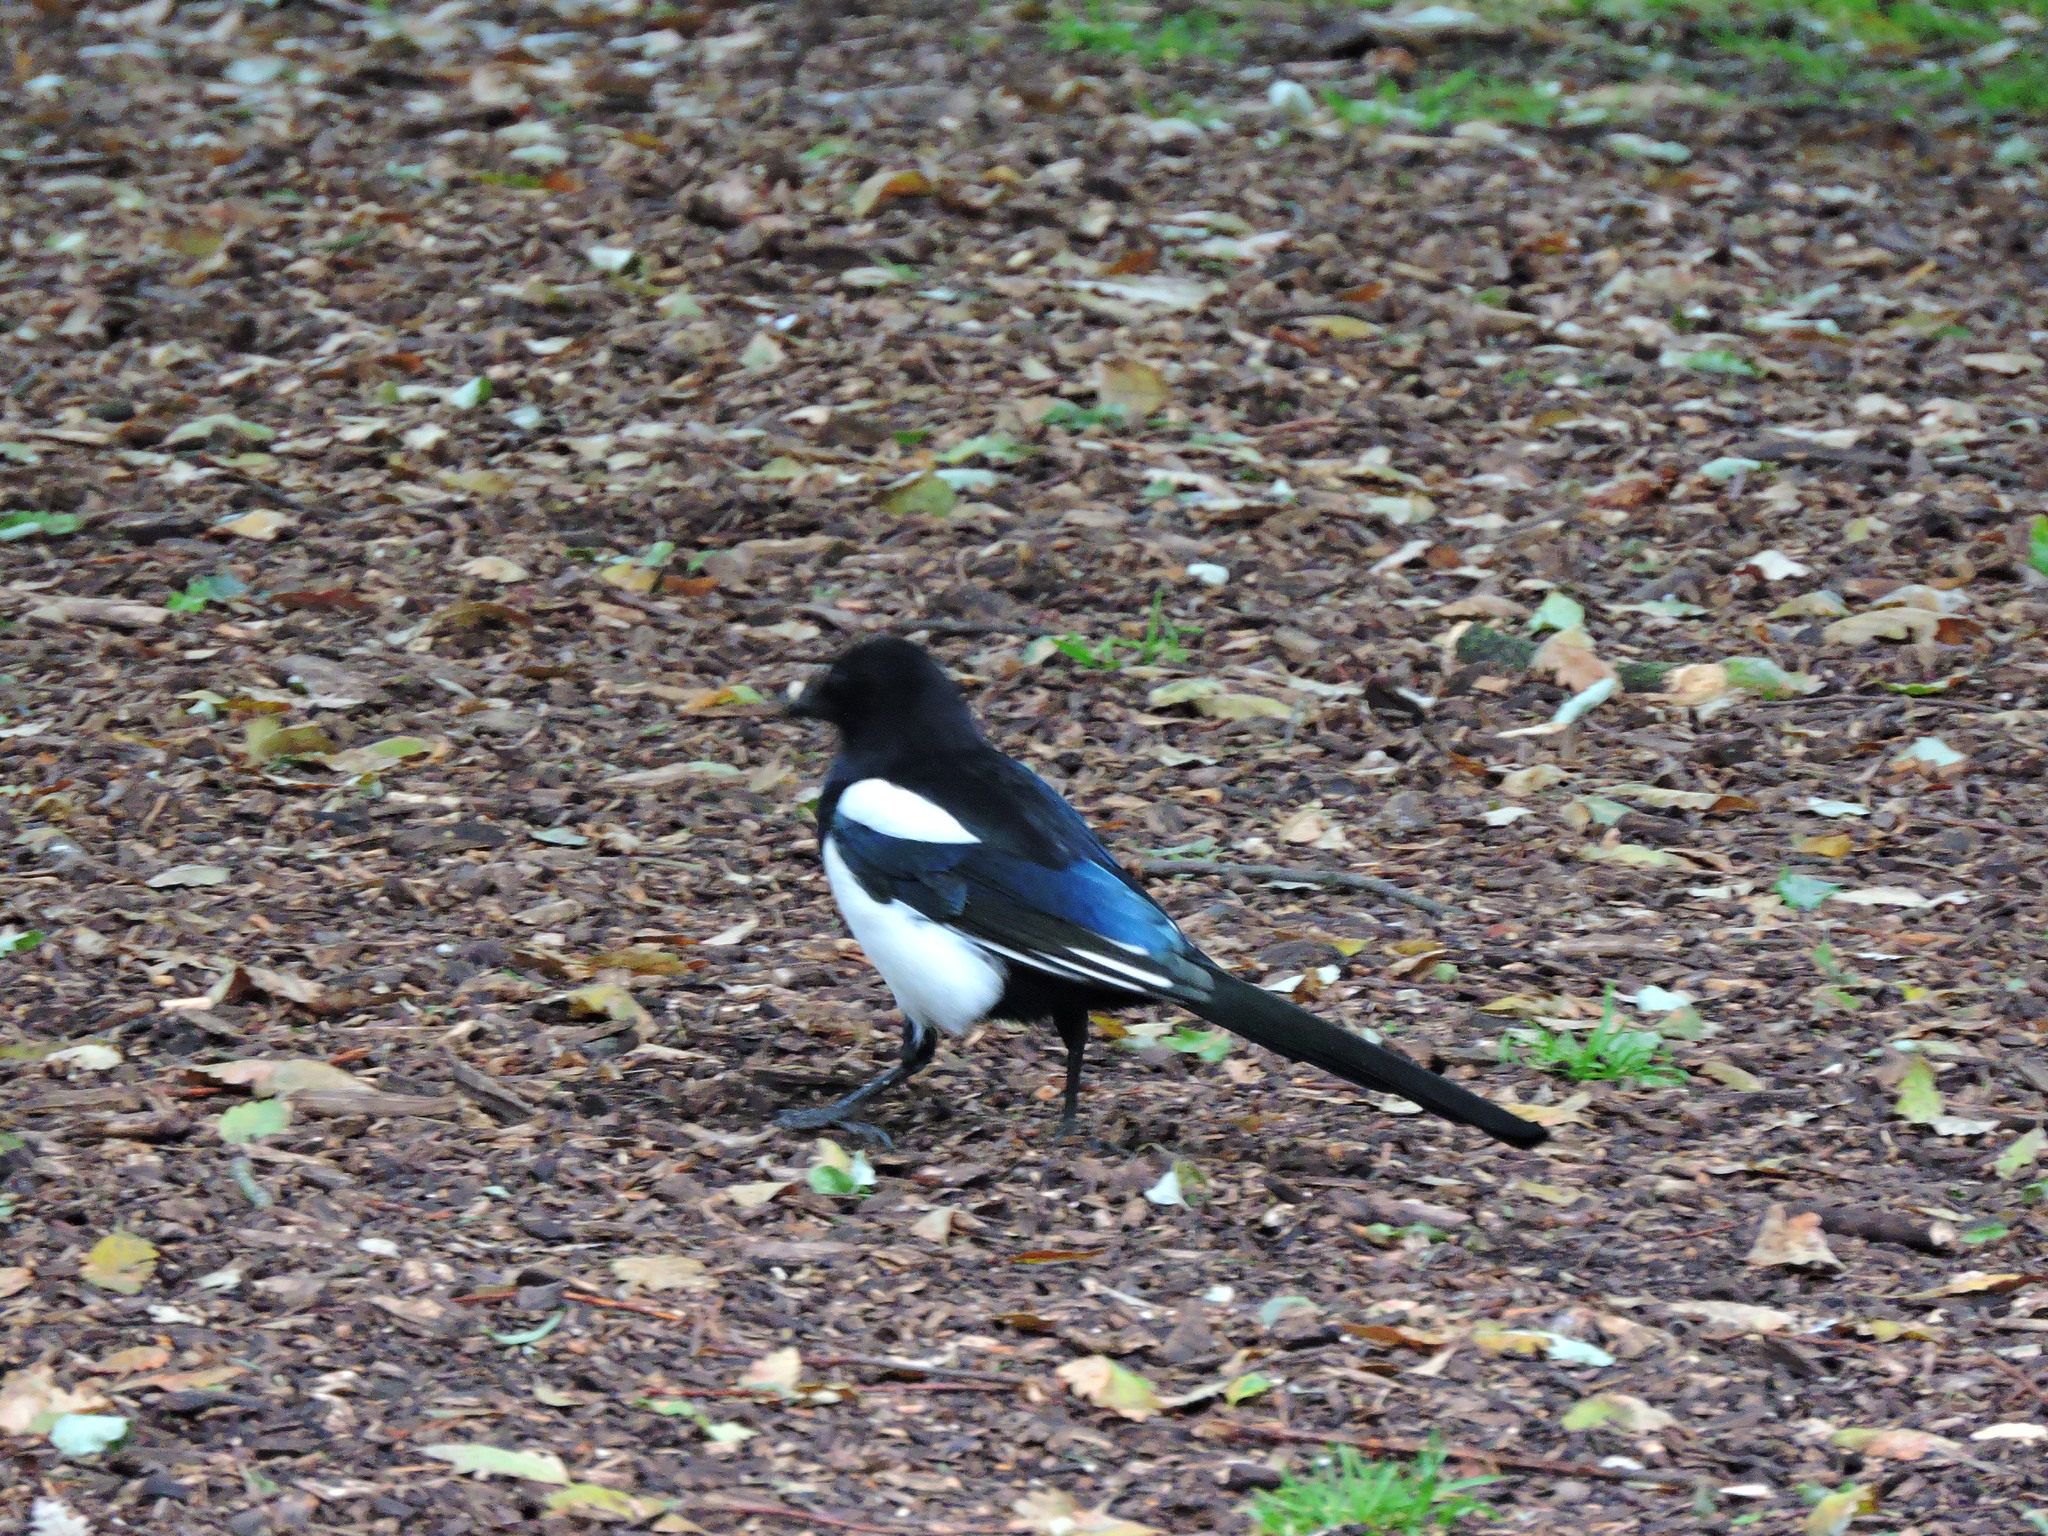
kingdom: Animalia
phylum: Chordata
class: Aves
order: Passeriformes
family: Corvidae
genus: Pica
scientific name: Pica pica
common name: Eurasian magpie
